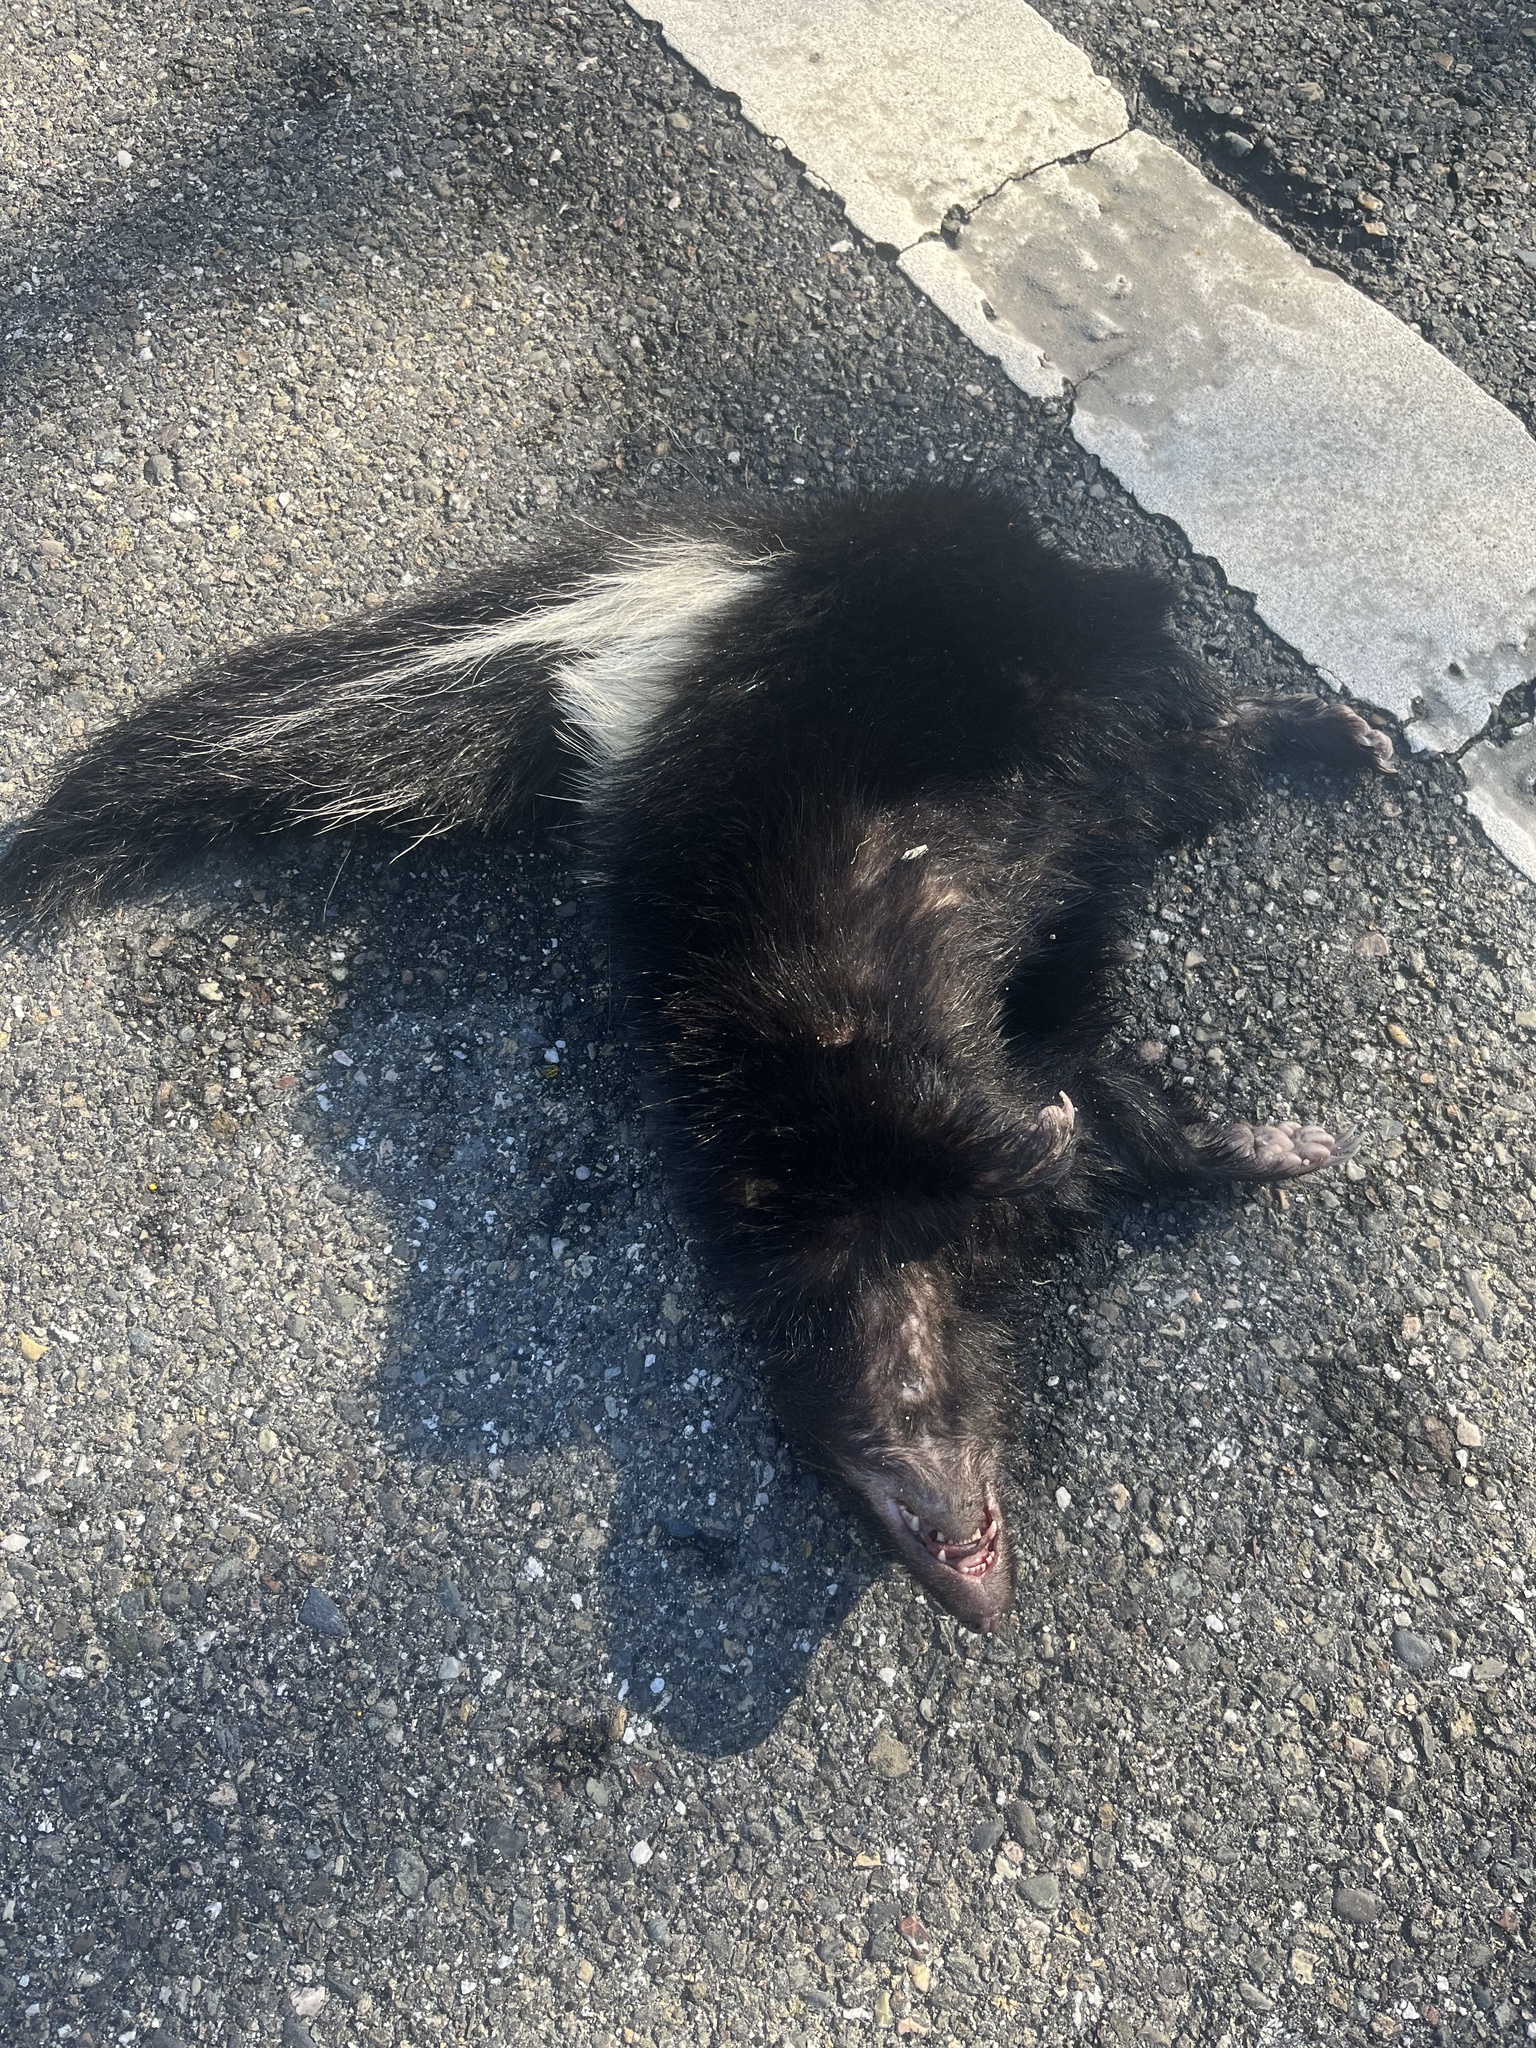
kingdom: Animalia
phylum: Chordata
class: Mammalia
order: Carnivora
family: Mephitidae
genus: Mephitis
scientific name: Mephitis mephitis
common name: Striped skunk
